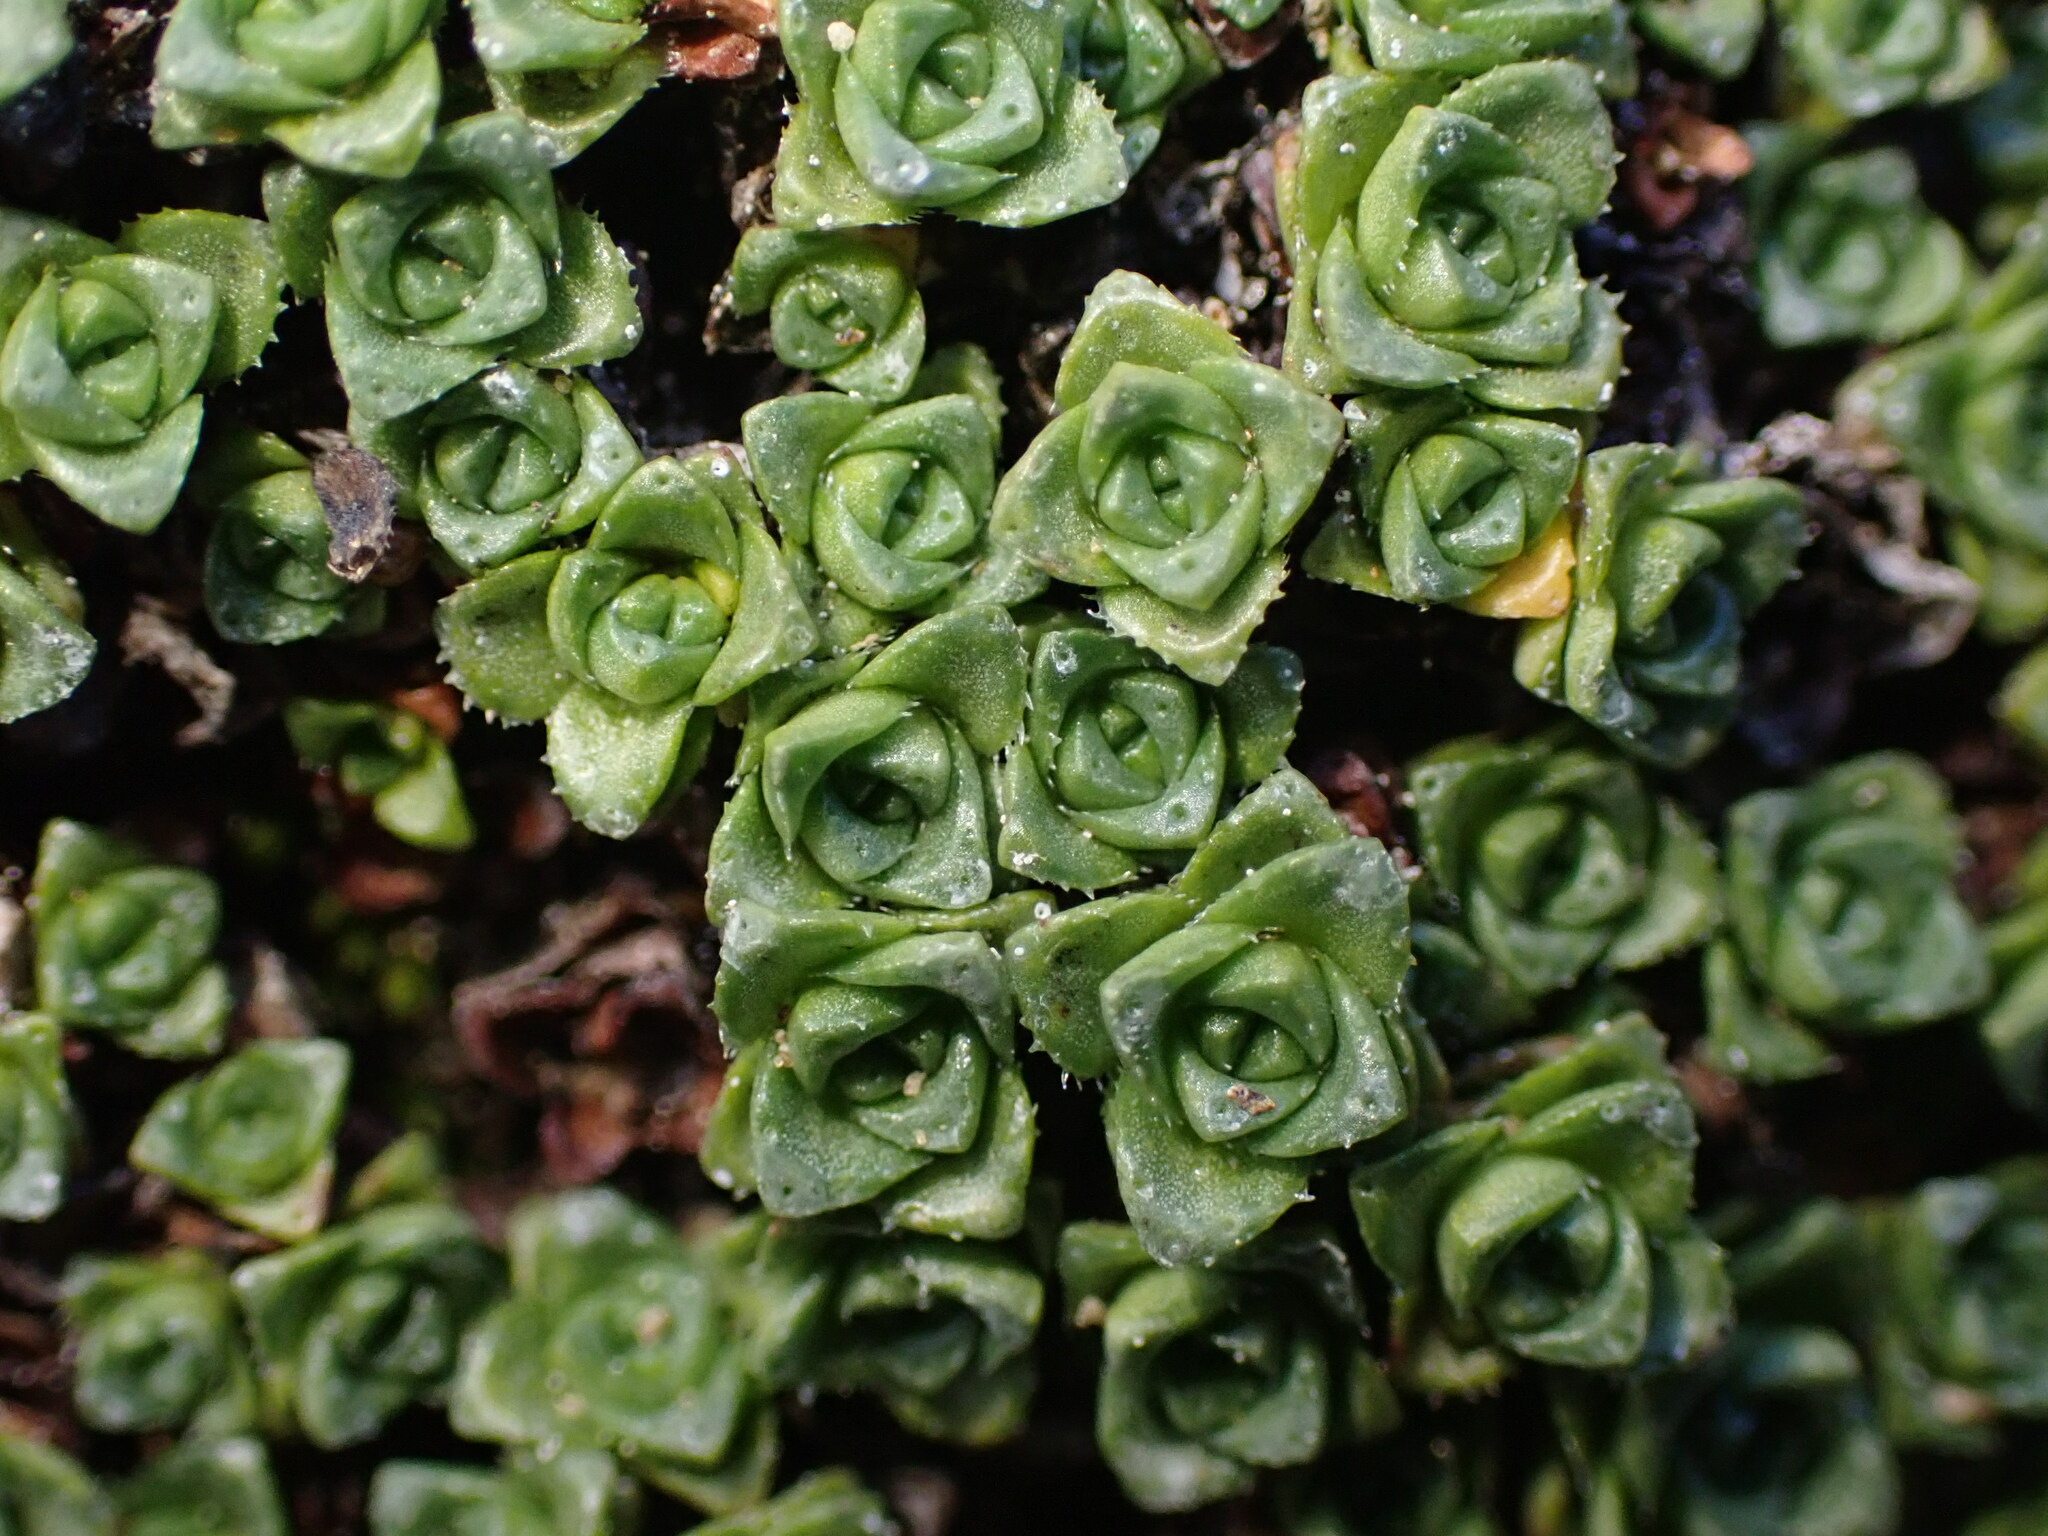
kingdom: Plantae
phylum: Tracheophyta
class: Magnoliopsida
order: Saxifragales
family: Saxifragaceae
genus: Saxifraga
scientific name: Saxifraga oppositifolia
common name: Purple saxifrage
